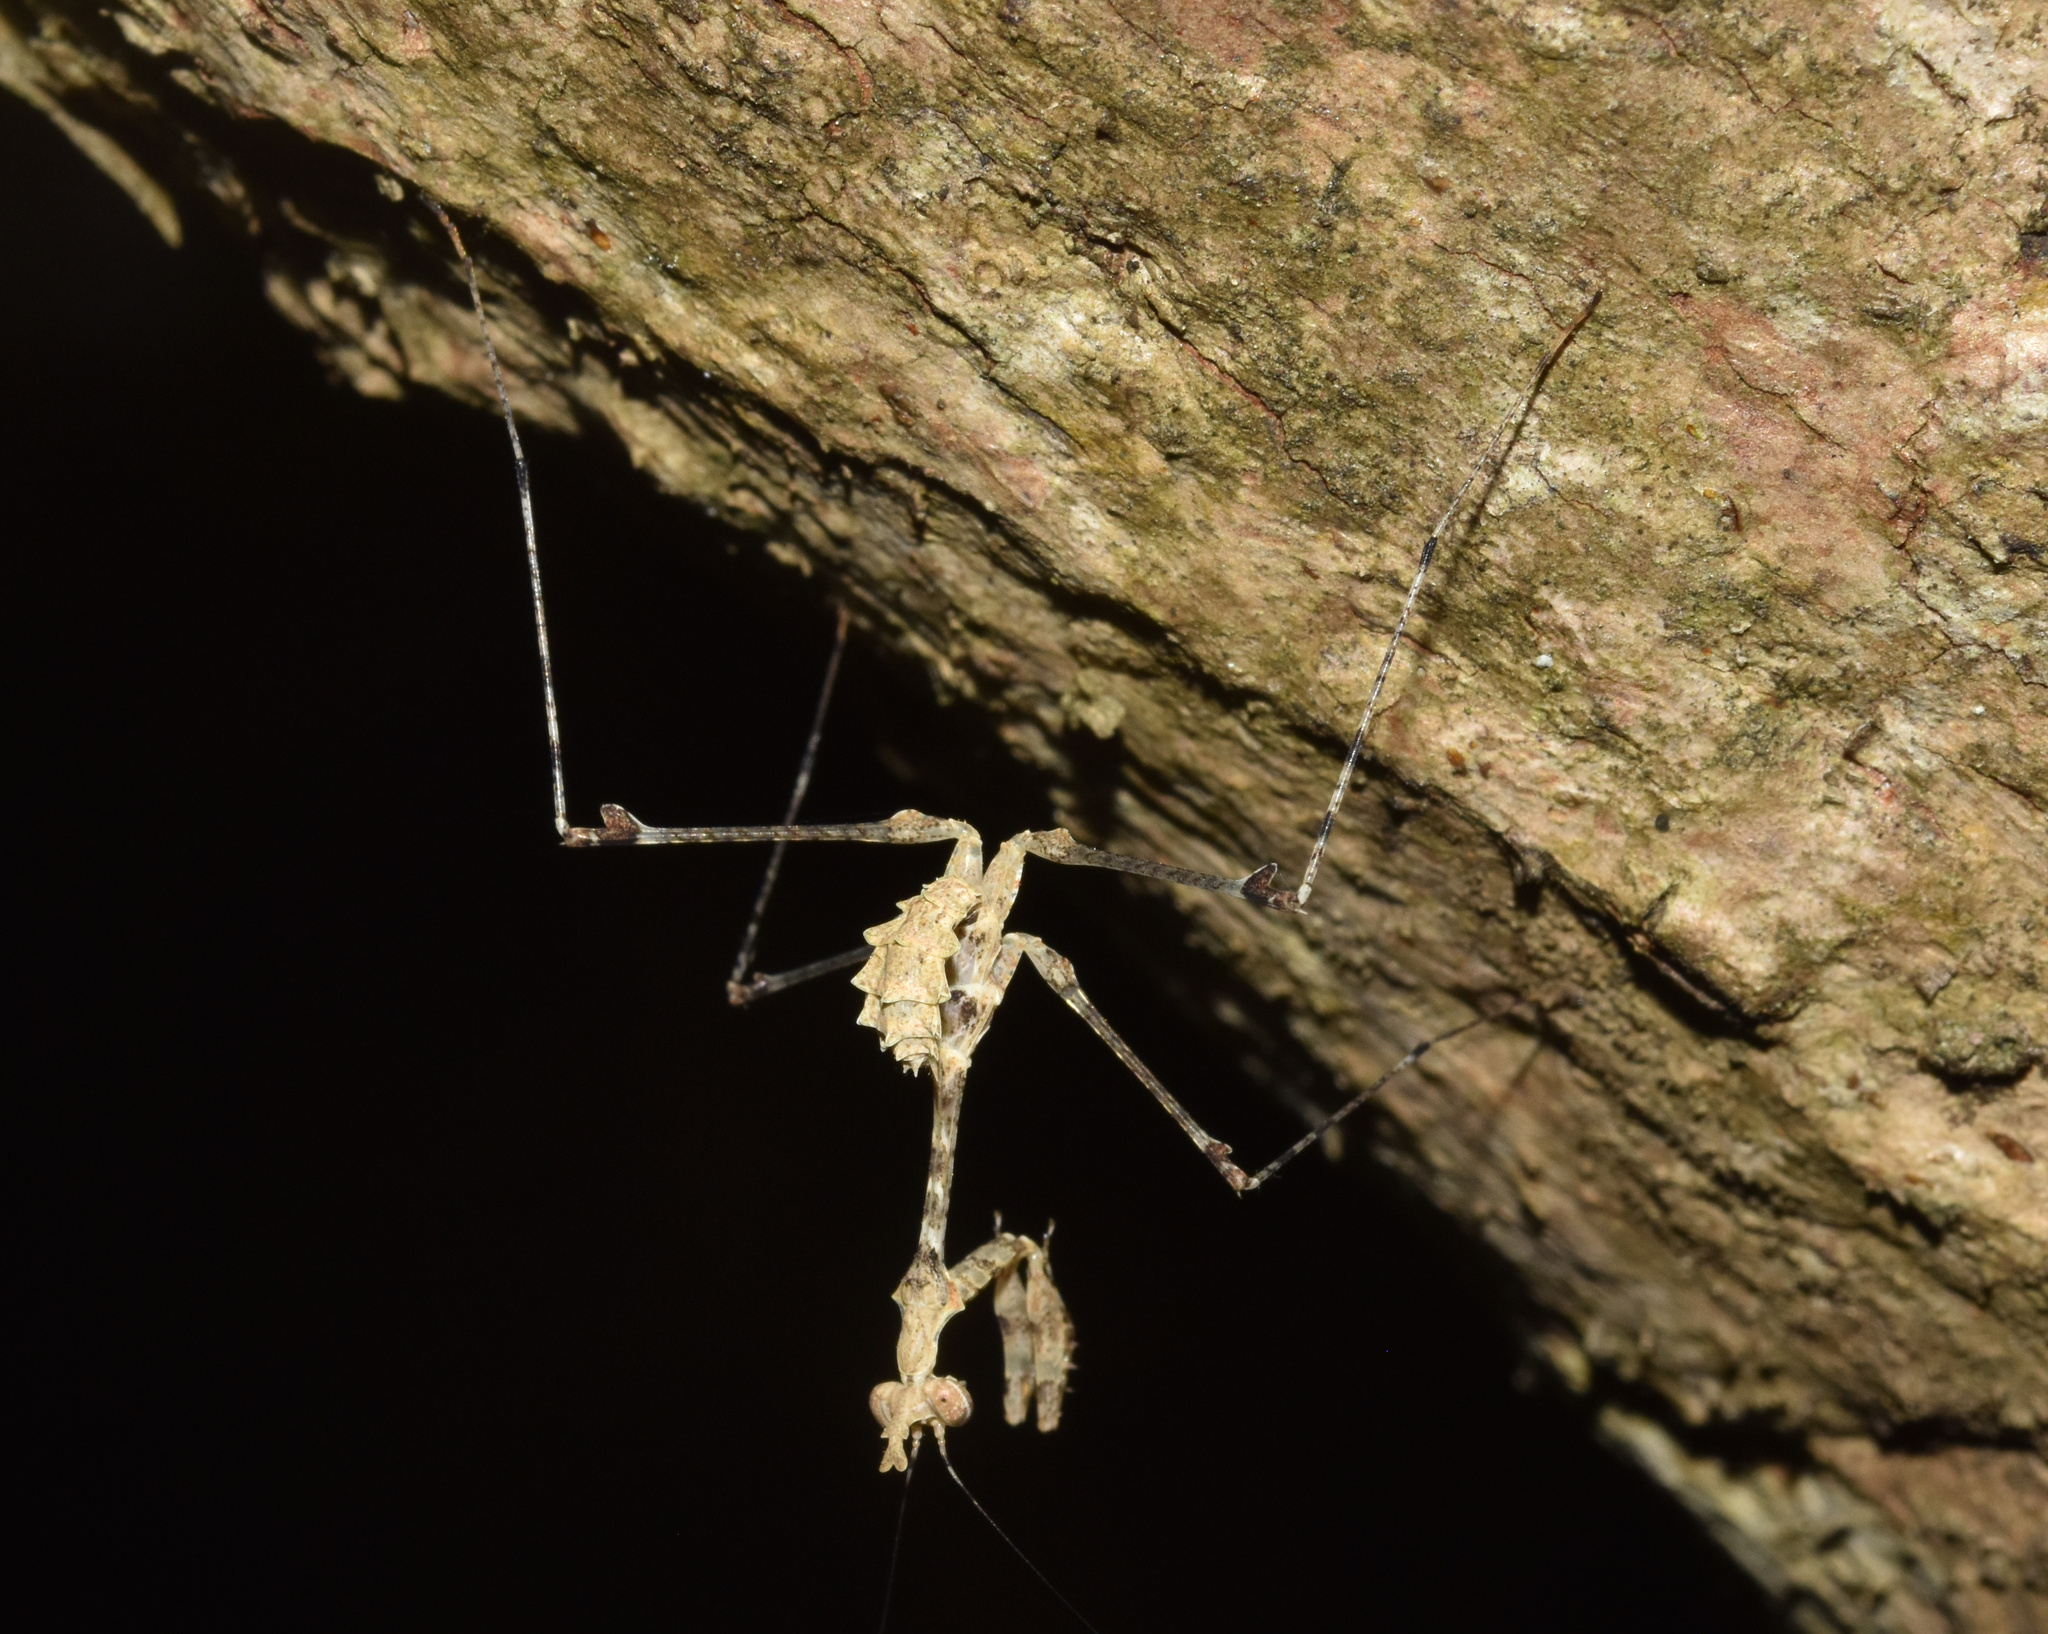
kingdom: Animalia
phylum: Arthropoda
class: Insecta
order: Mantodea
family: Hymenopodidae
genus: Sibylla
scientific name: Sibylla pretiosa
